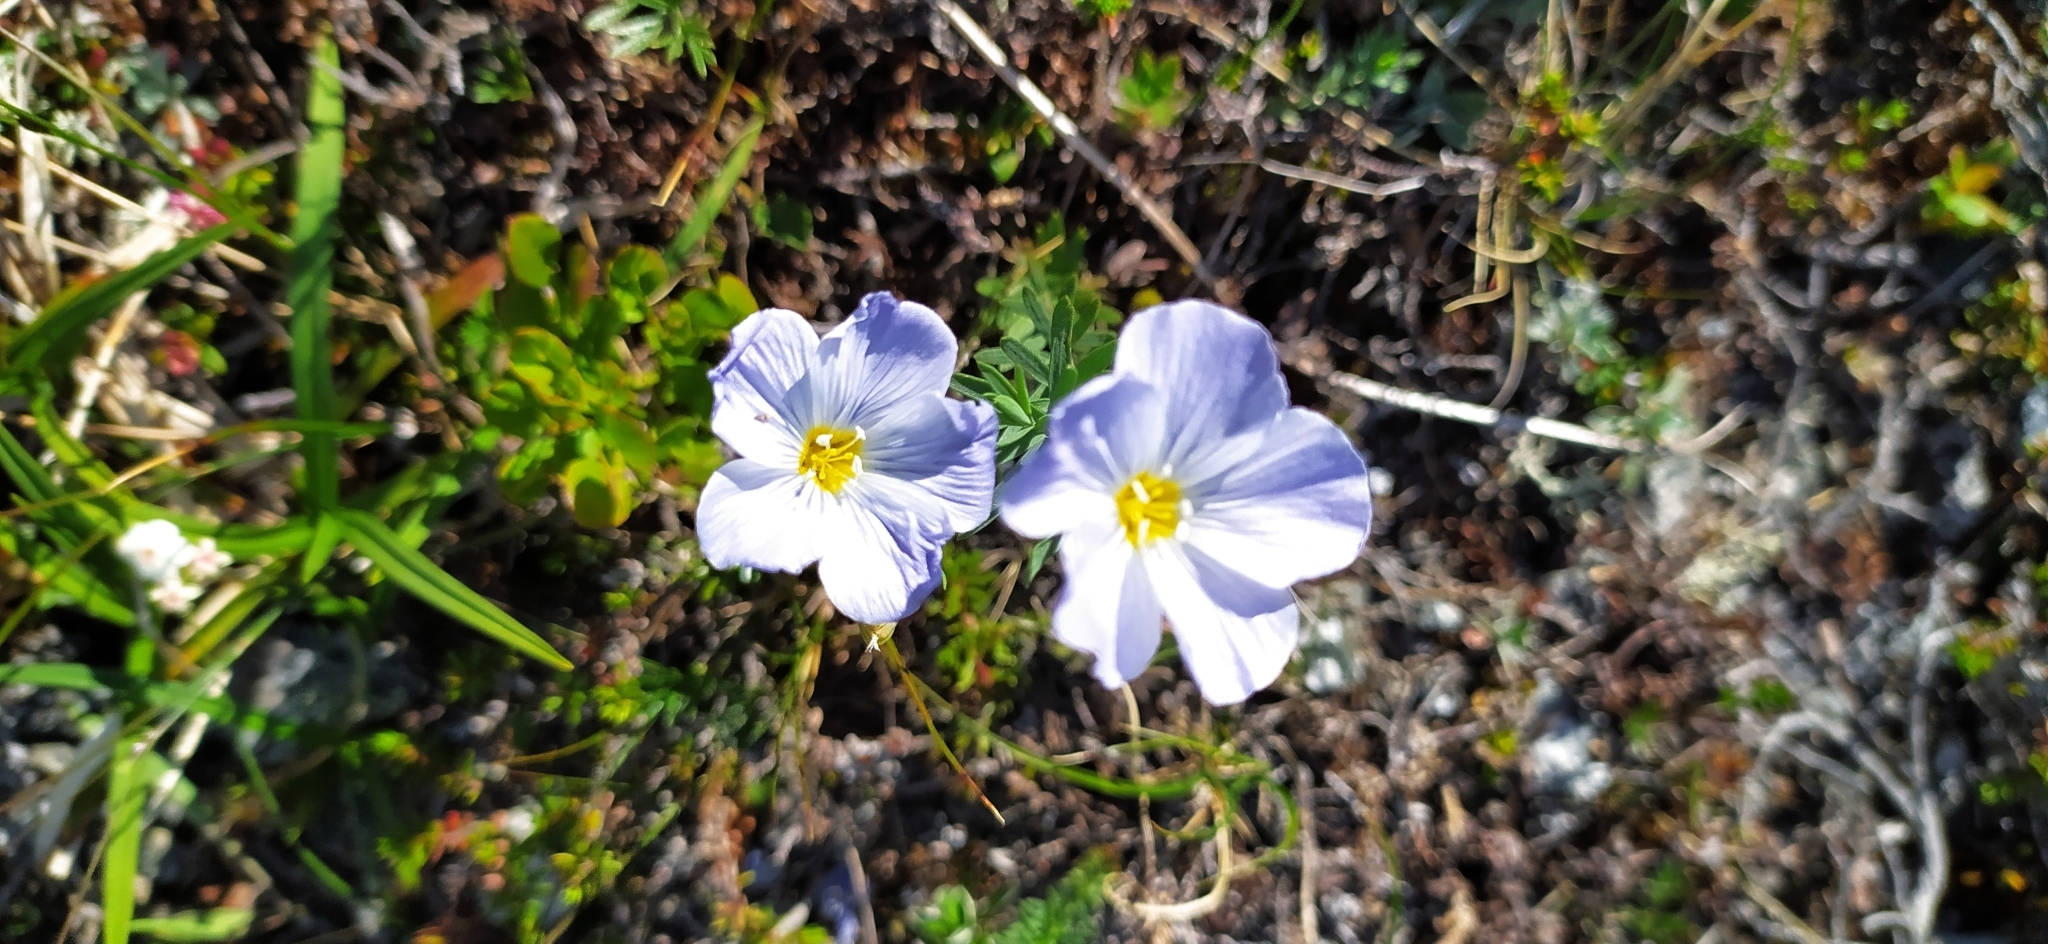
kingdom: Plantae
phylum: Tracheophyta
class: Magnoliopsida
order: Malpighiales
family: Linaceae
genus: Linum
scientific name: Linum komarovii
